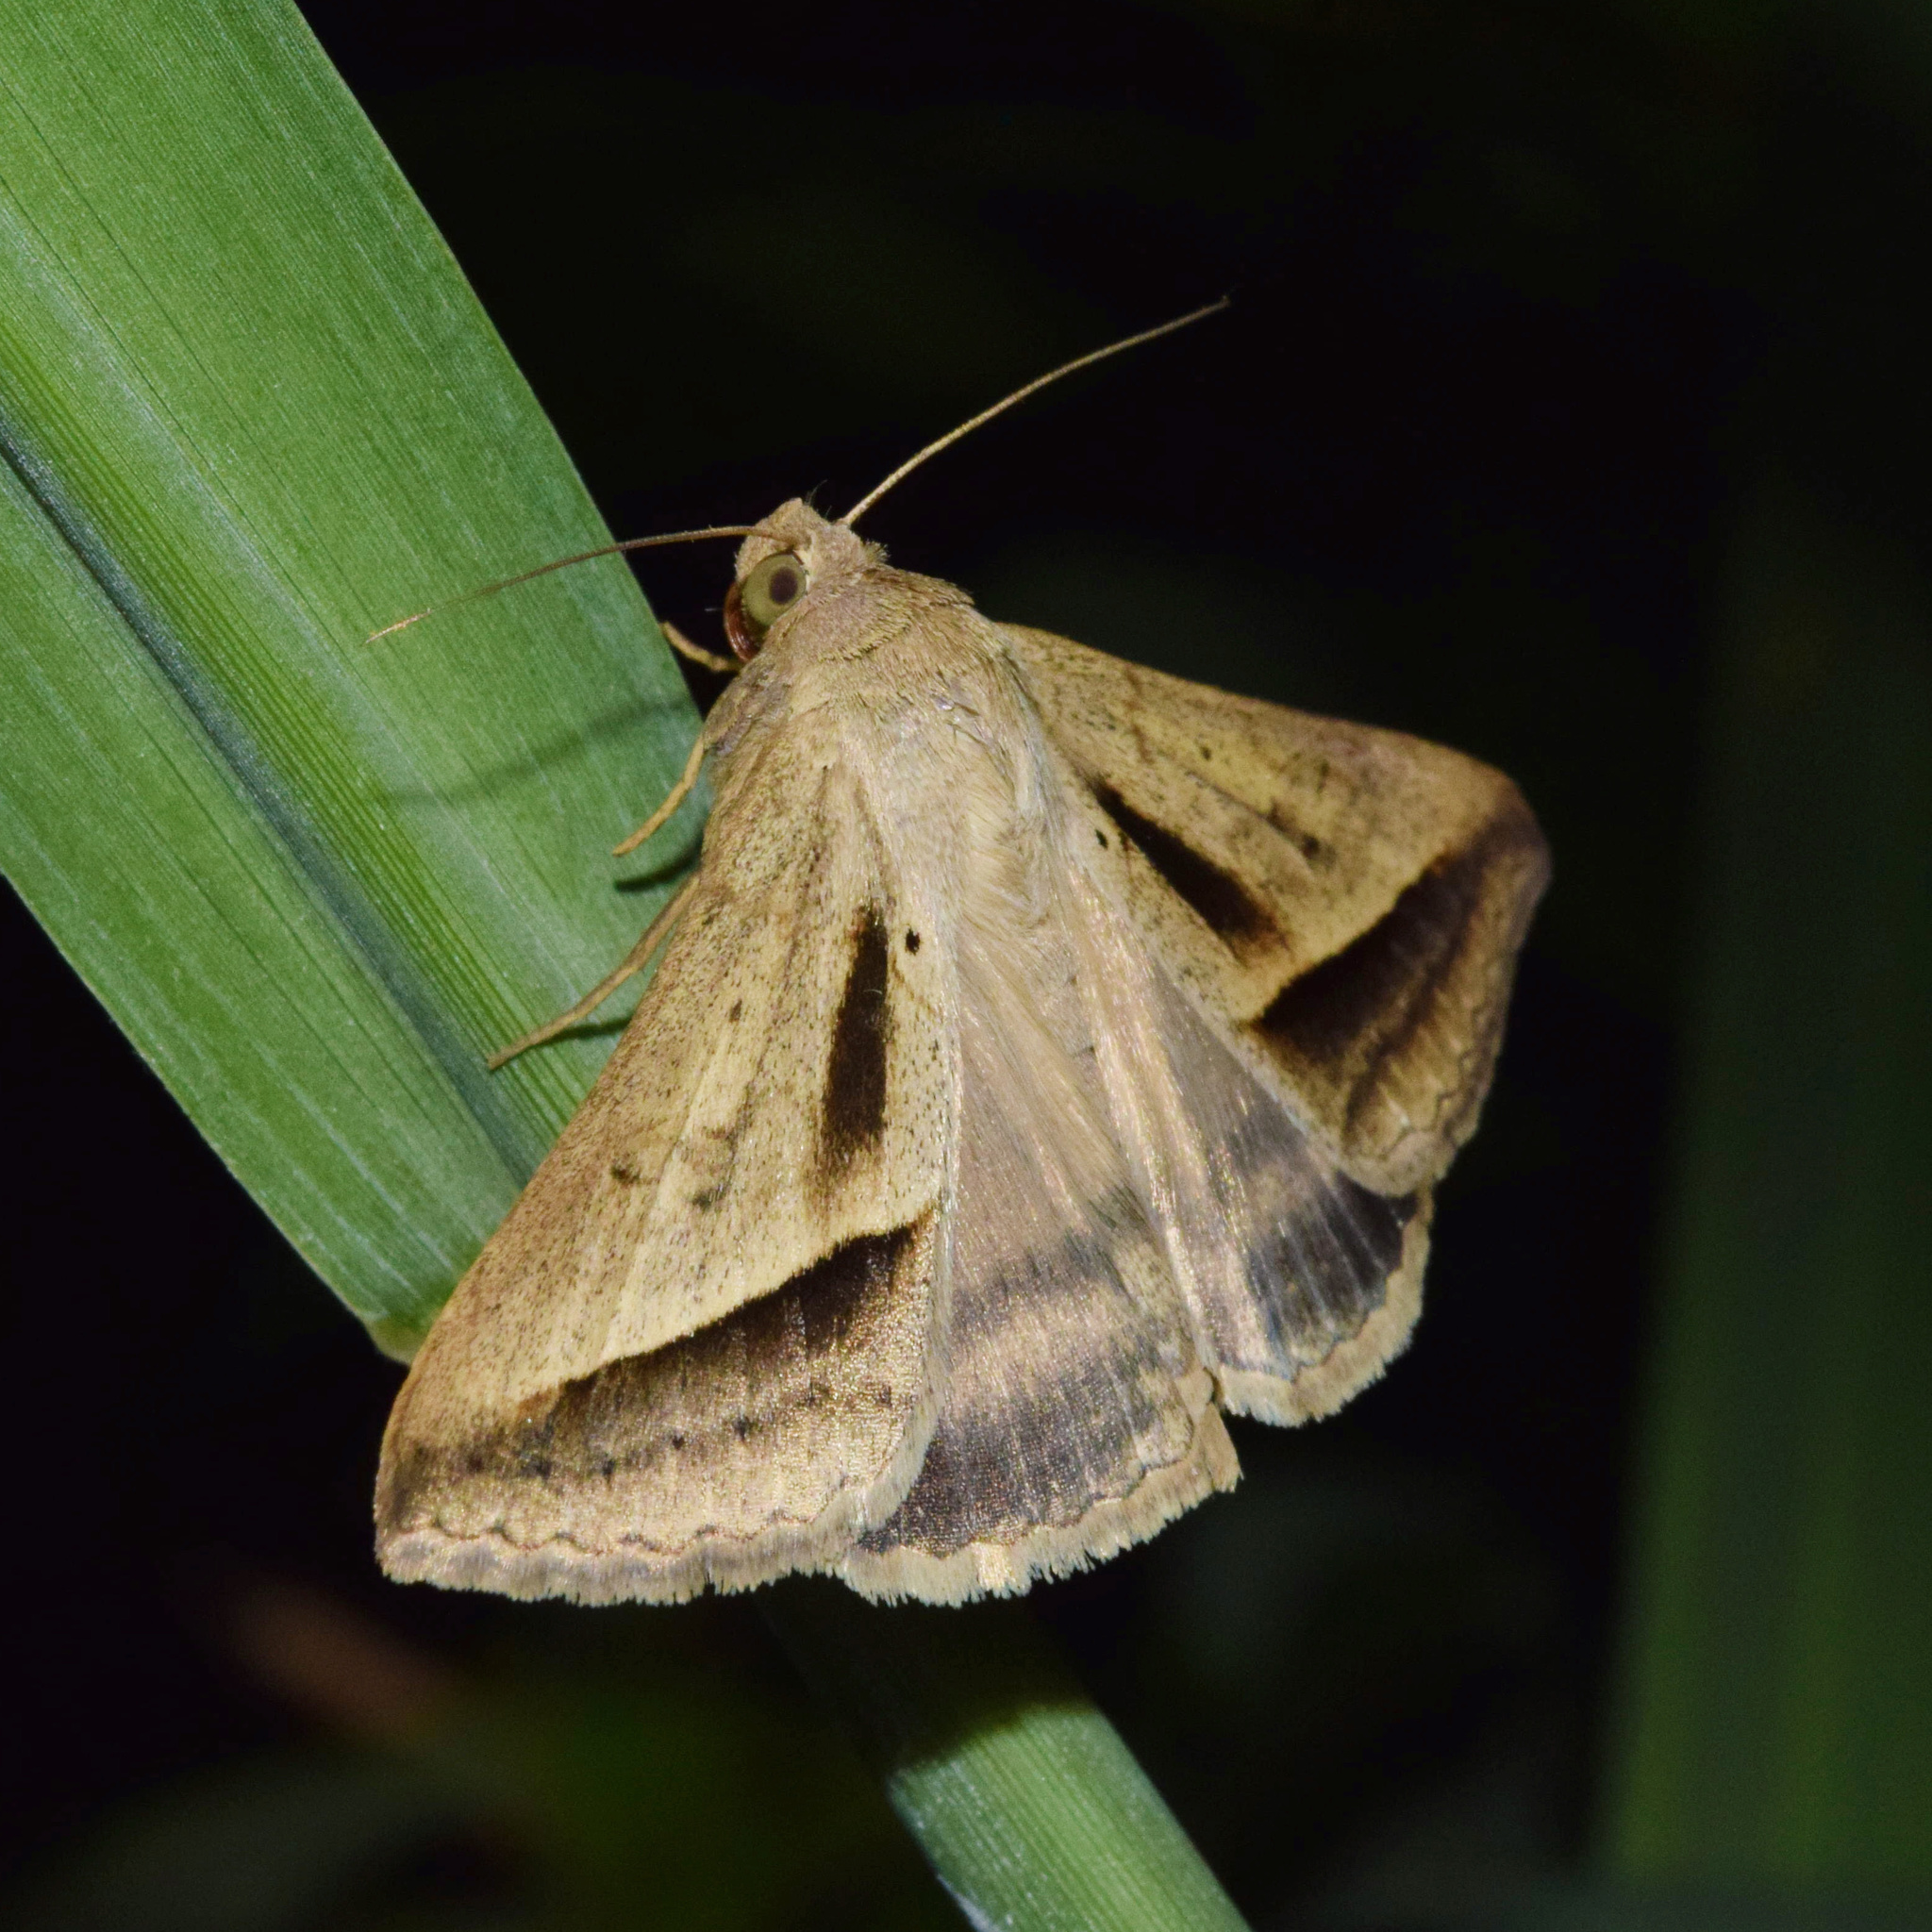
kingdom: Animalia
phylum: Arthropoda
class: Insecta
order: Lepidoptera
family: Erebidae
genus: Mocis
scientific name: Mocis proverai
